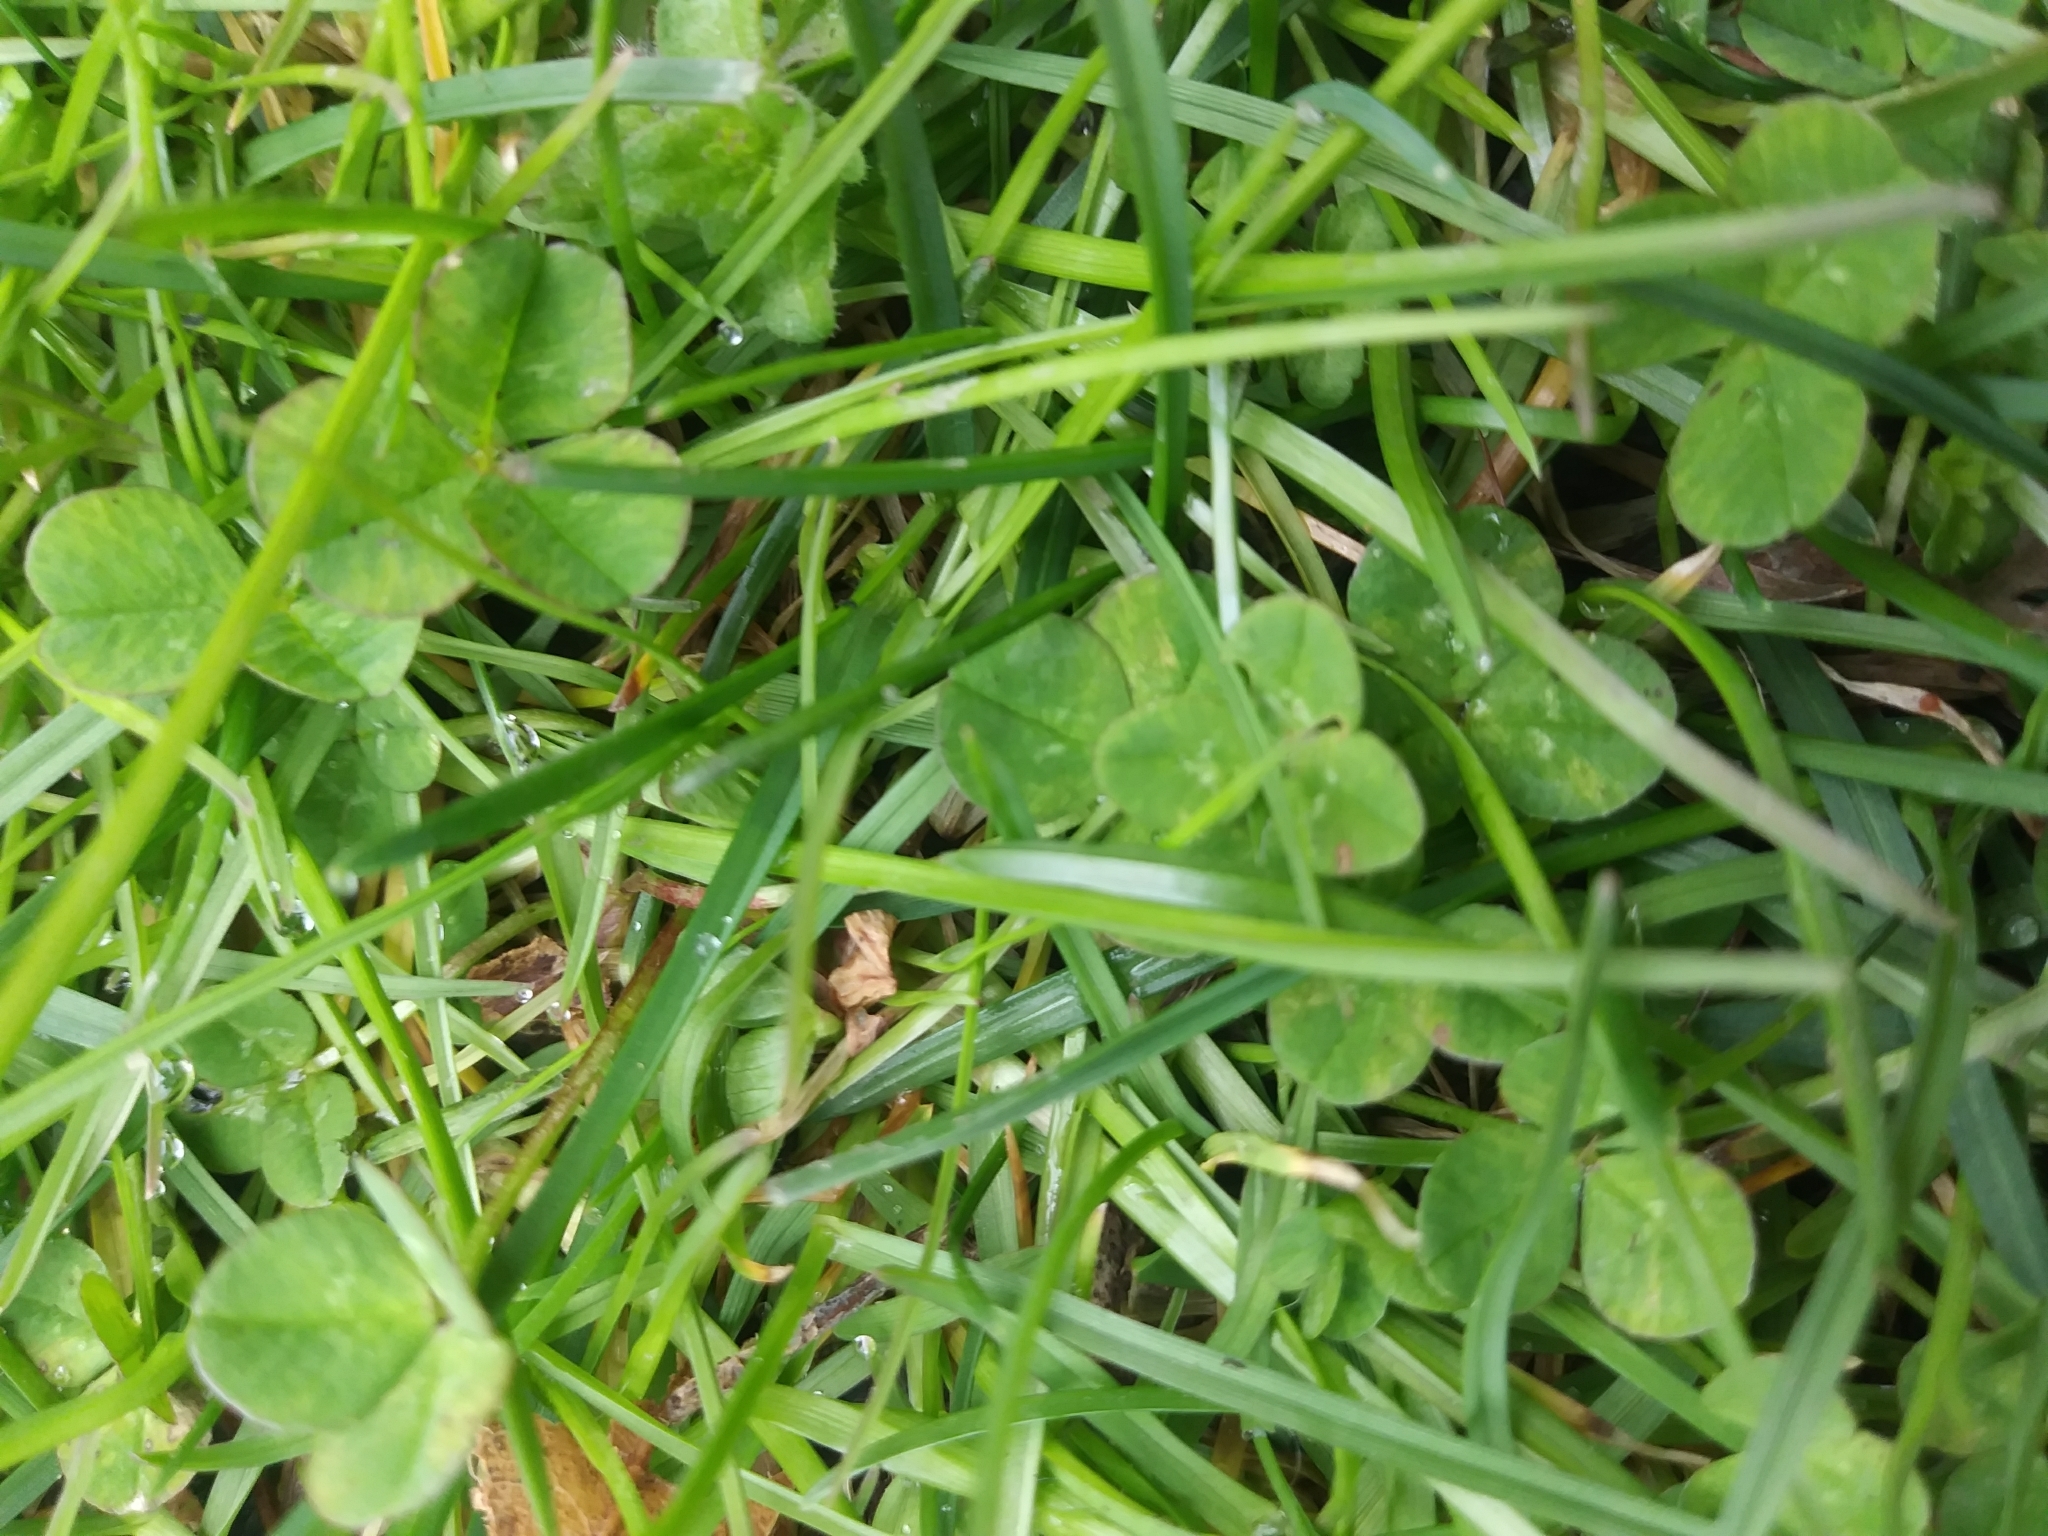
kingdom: Plantae
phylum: Tracheophyta
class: Magnoliopsida
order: Fabales
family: Fabaceae
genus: Trifolium
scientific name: Trifolium repens
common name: White clover
